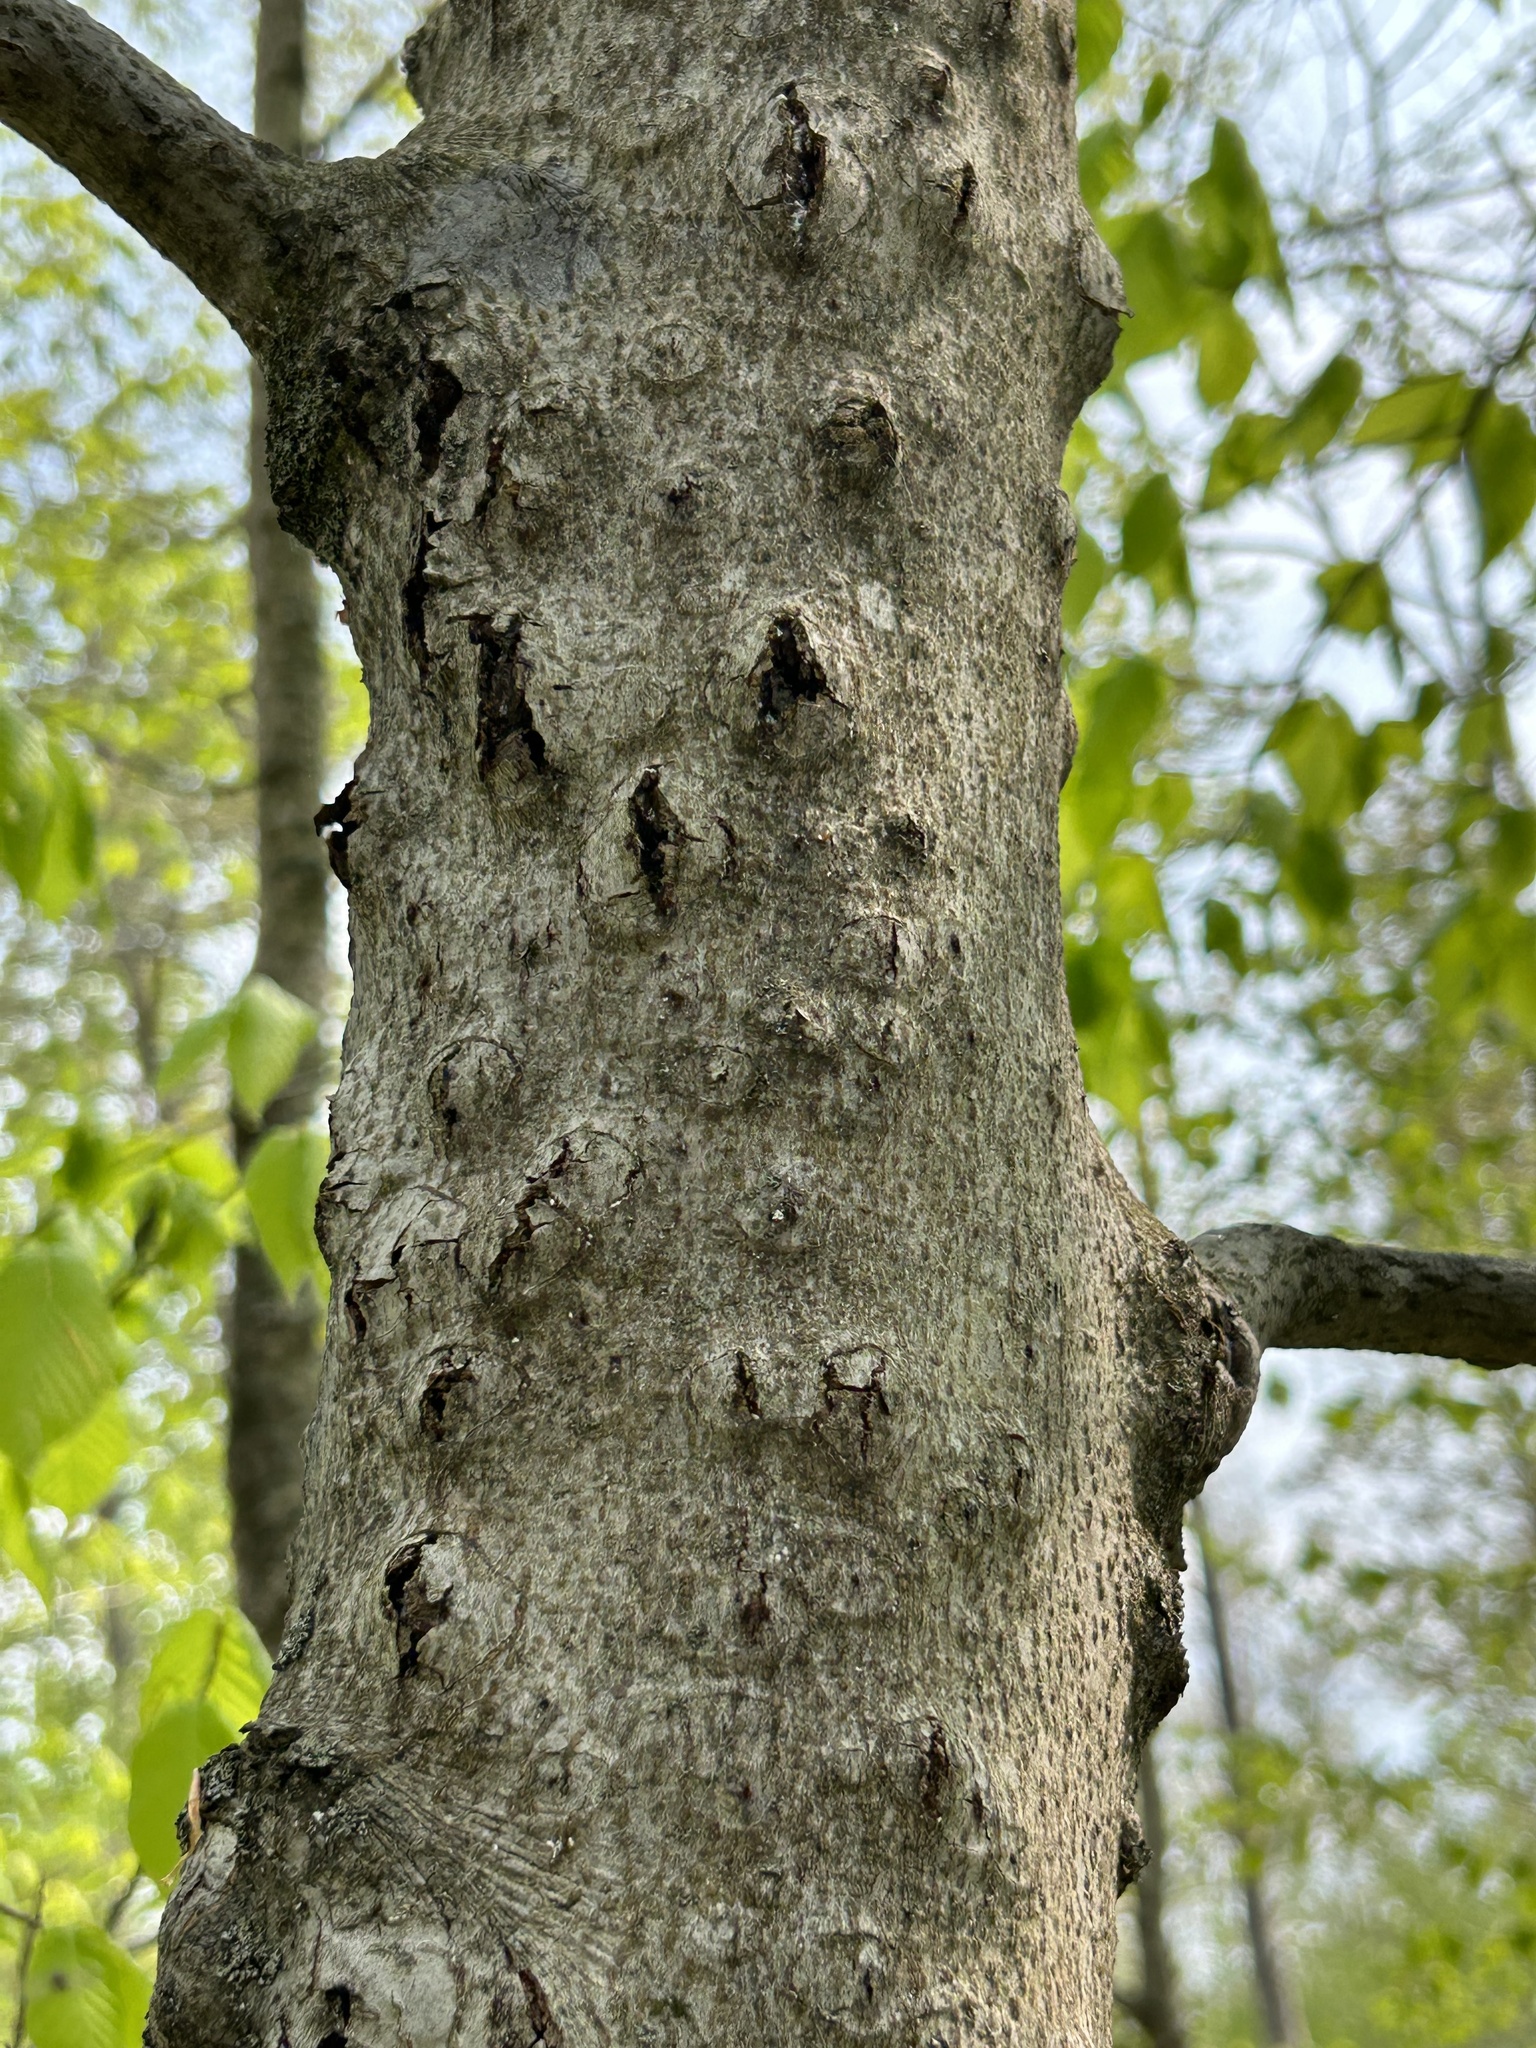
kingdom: Plantae
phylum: Tracheophyta
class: Magnoliopsida
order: Fagales
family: Fagaceae
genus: Fagus
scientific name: Fagus grandifolia
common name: American beech
